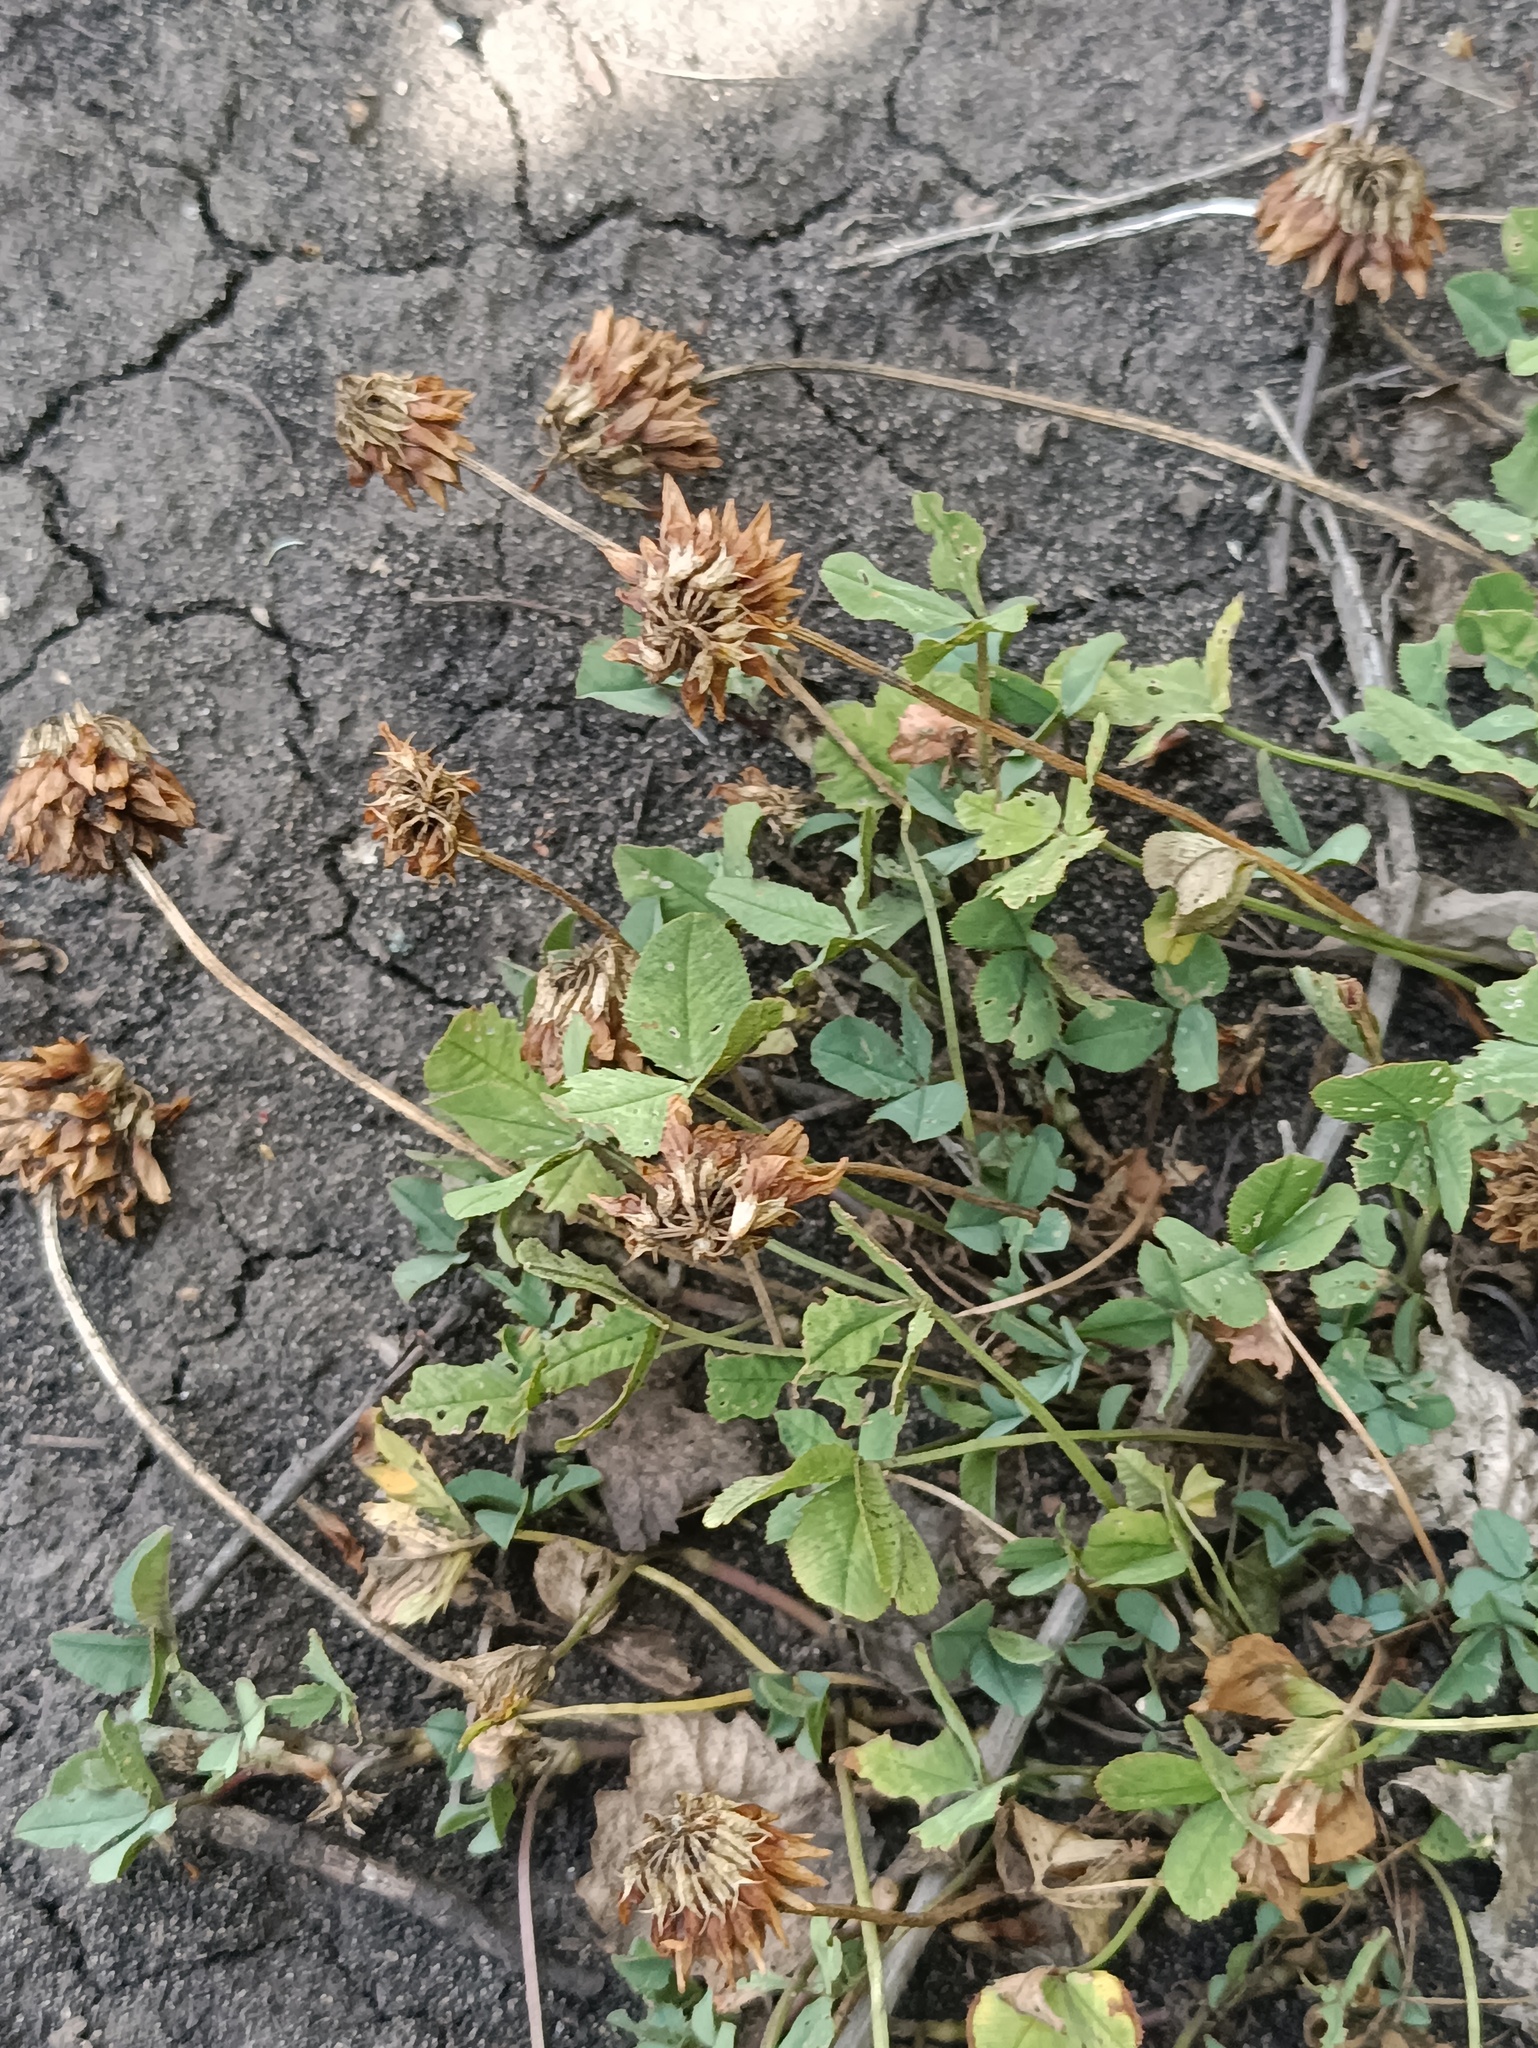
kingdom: Plantae
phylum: Tracheophyta
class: Magnoliopsida
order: Fabales
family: Fabaceae
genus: Trifolium
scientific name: Trifolium hybridum
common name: Alsike clover
